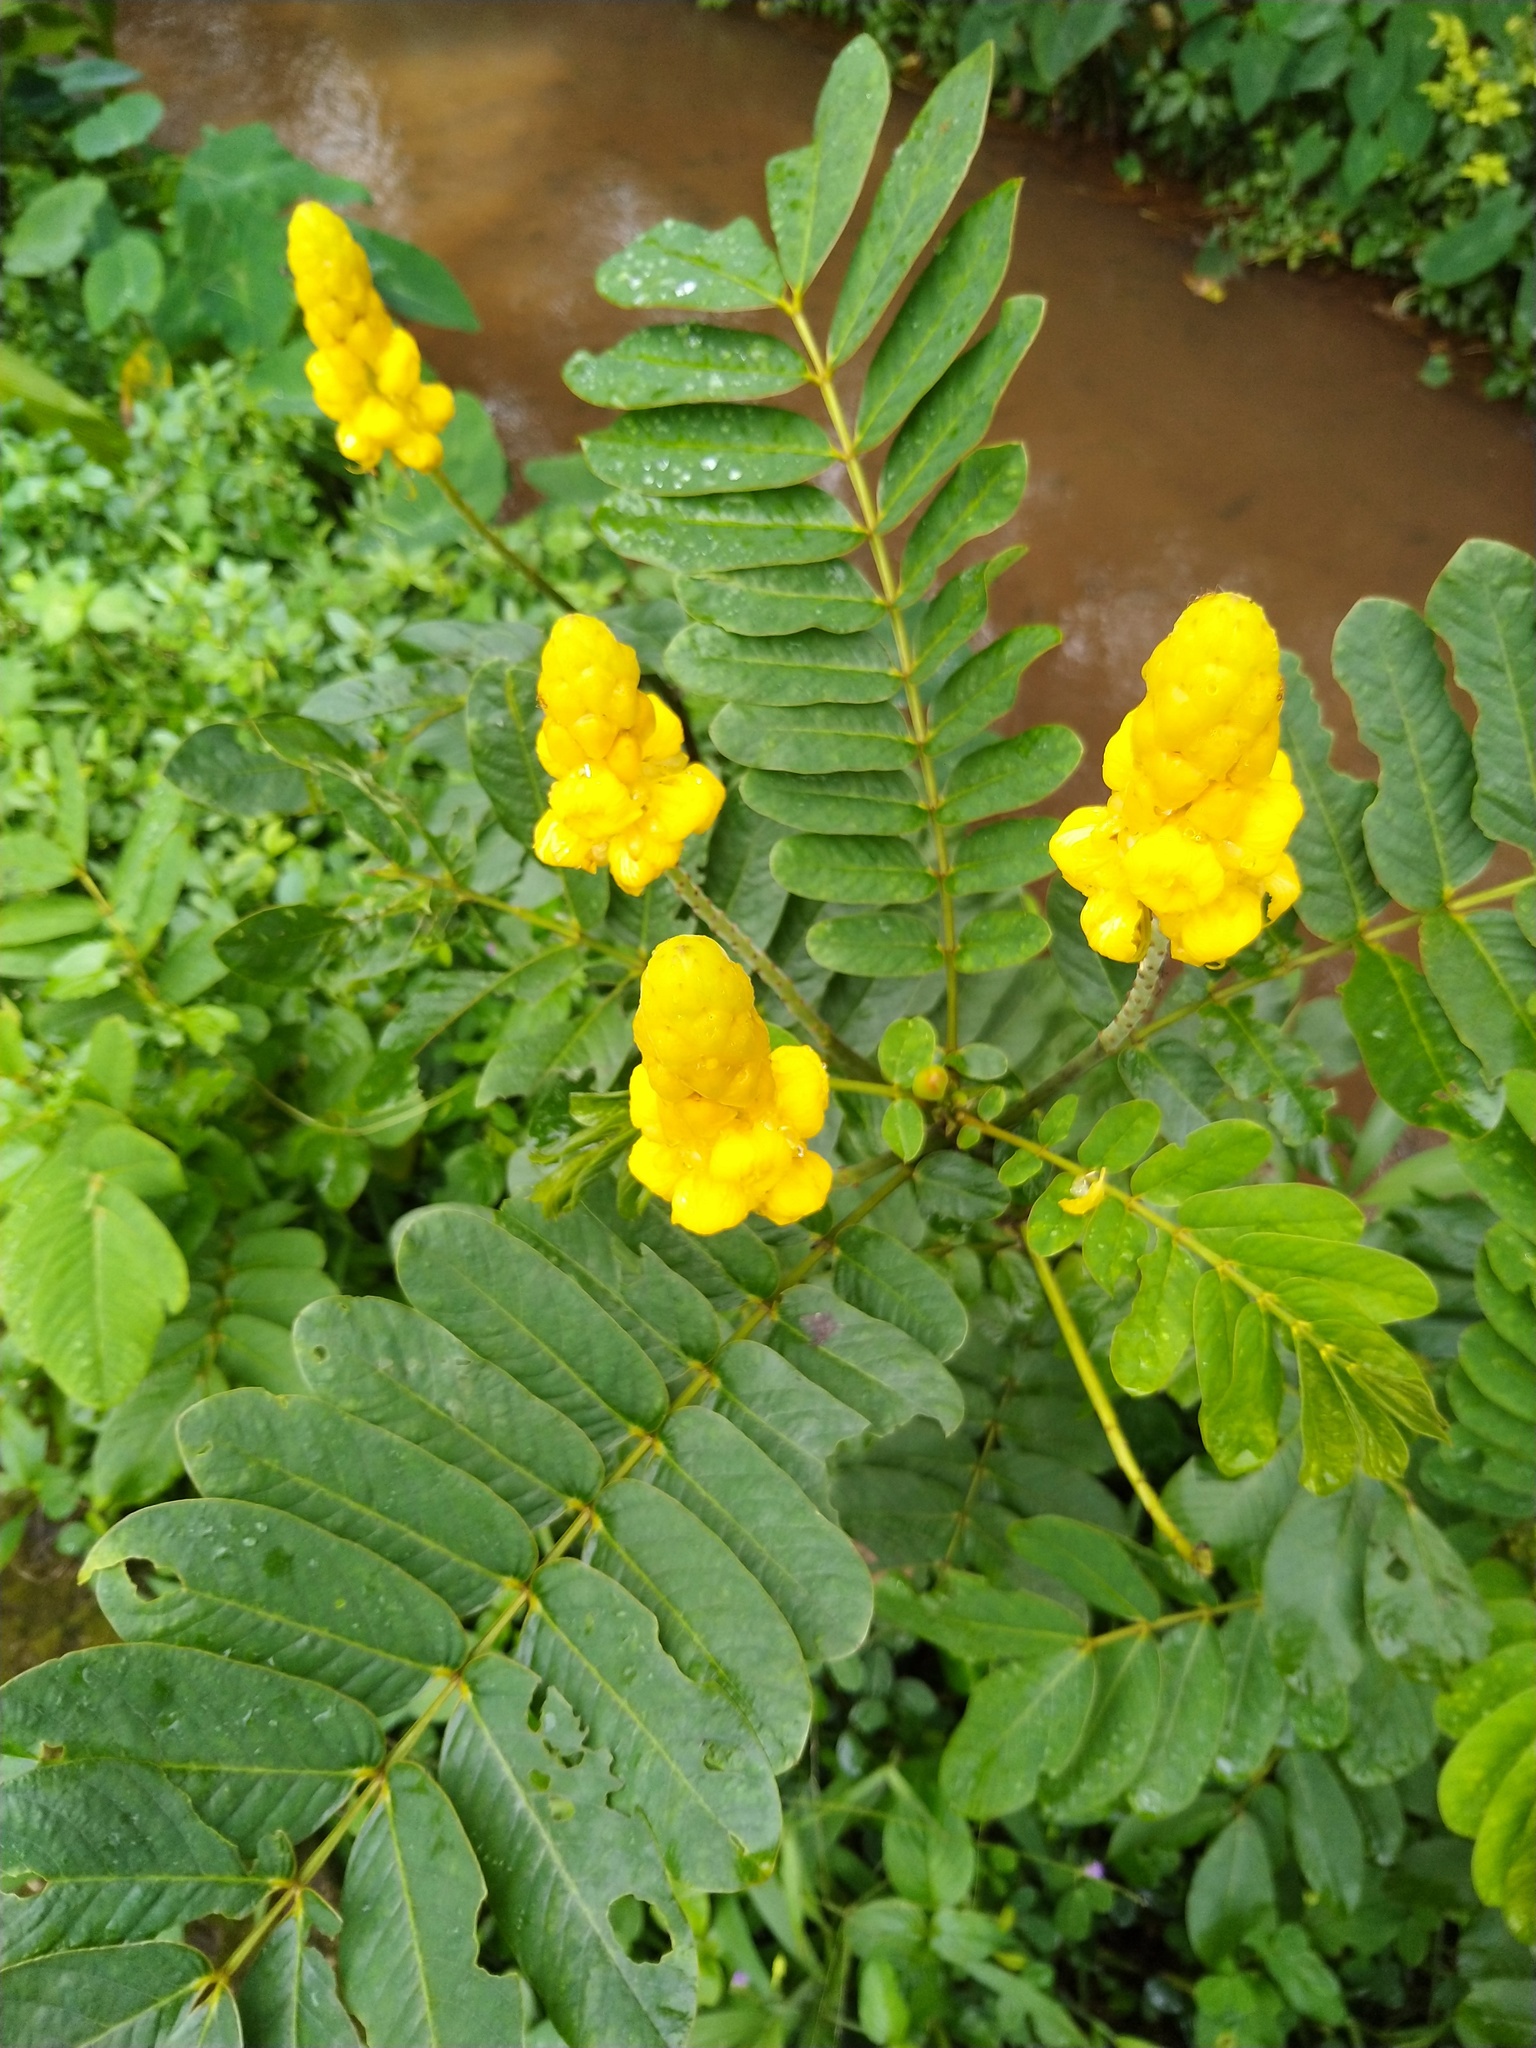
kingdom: Plantae
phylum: Tracheophyta
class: Magnoliopsida
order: Fabales
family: Fabaceae
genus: Senna
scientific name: Senna alata
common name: Emperor's candlesticks
